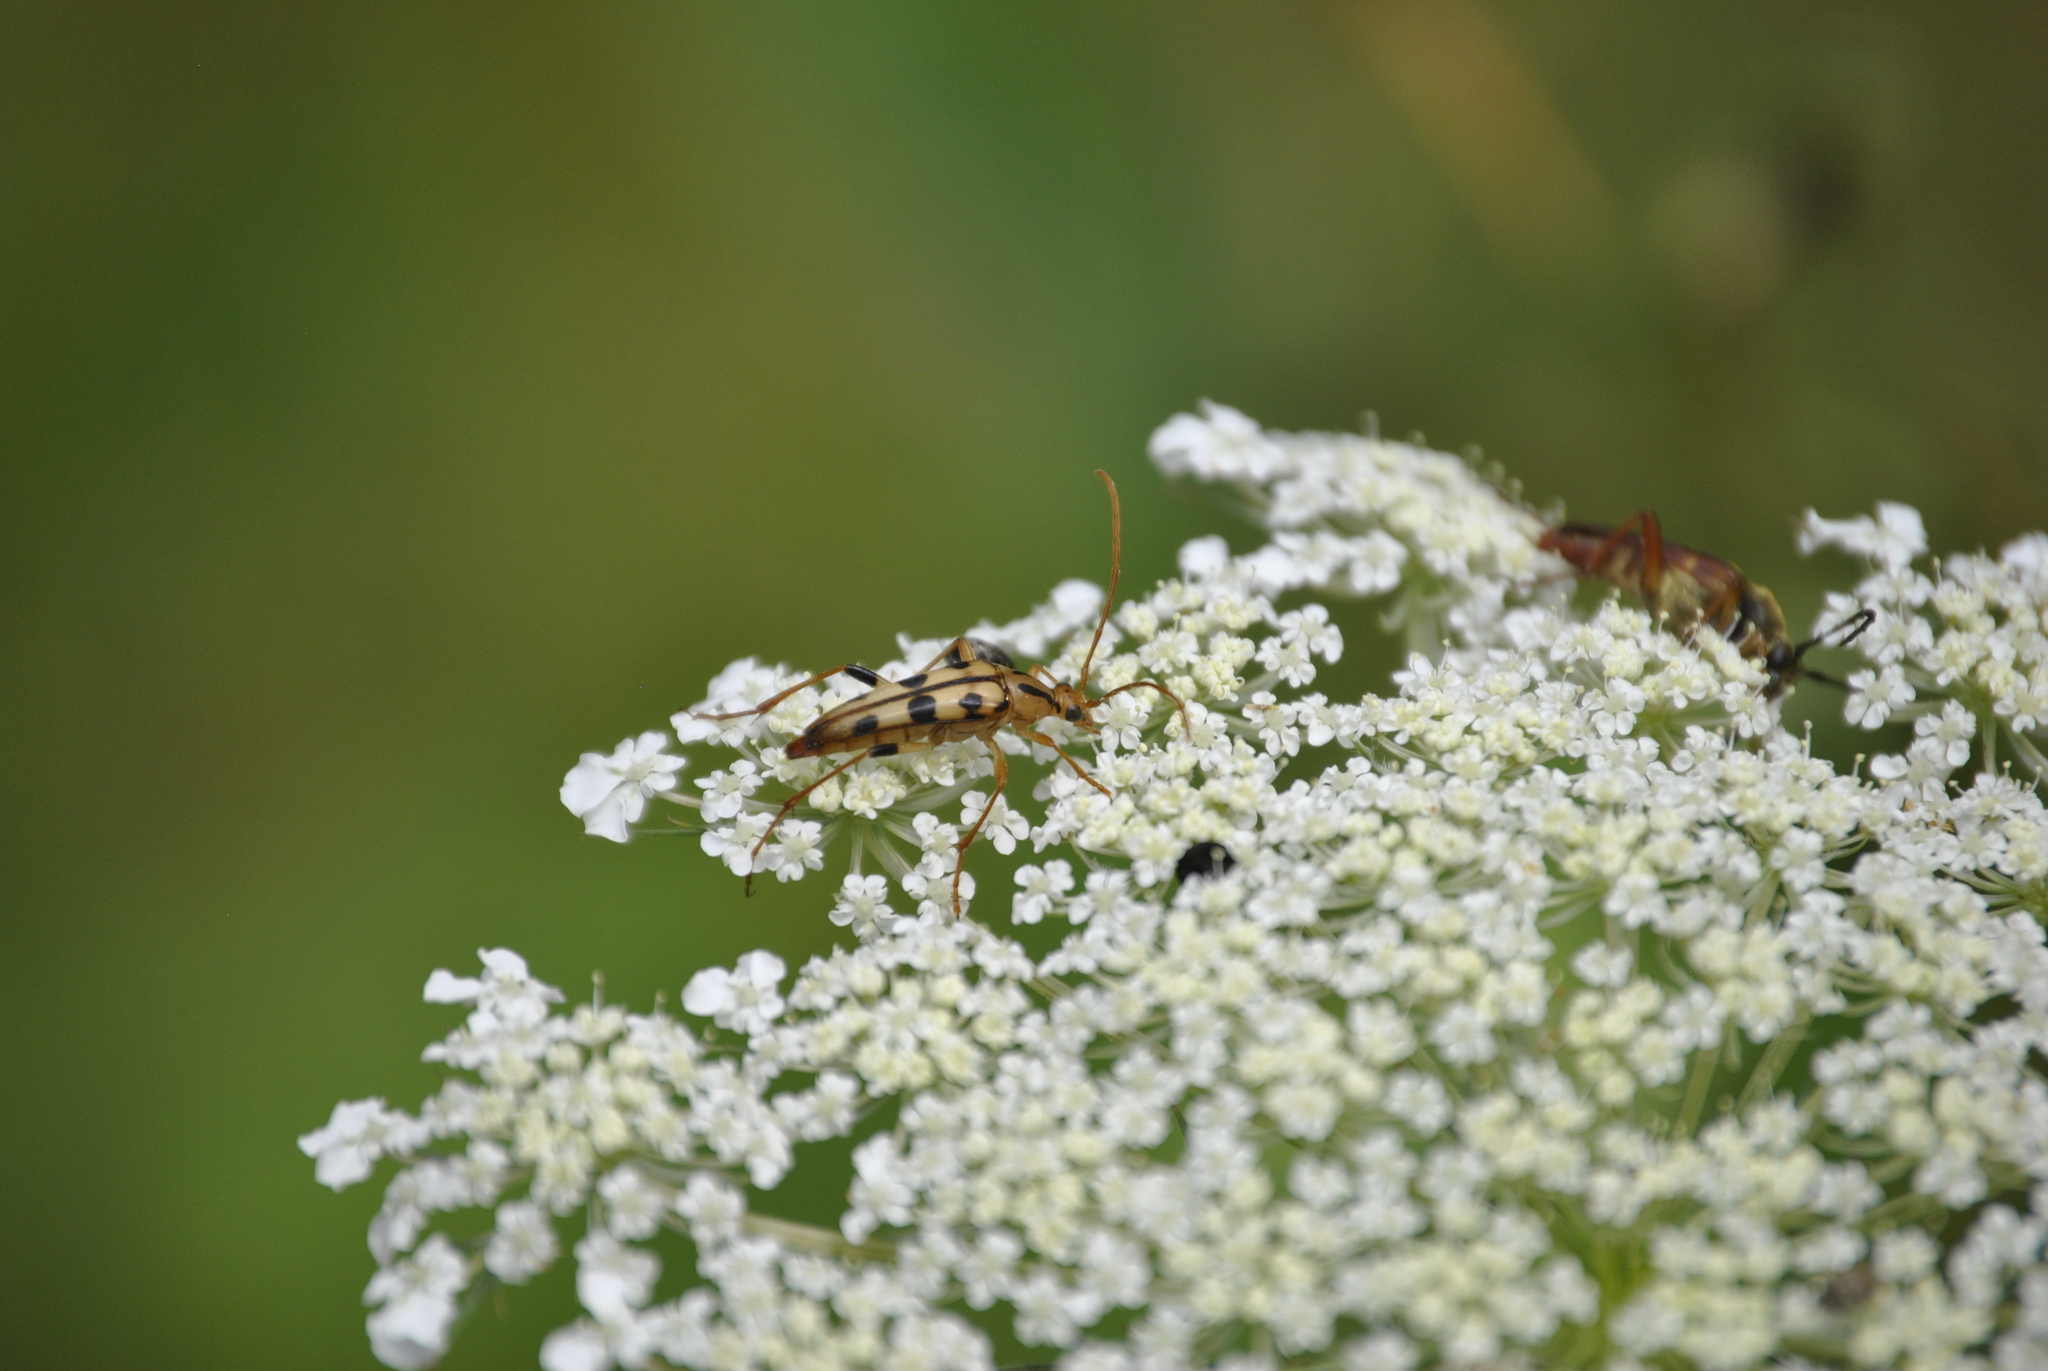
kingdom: Animalia
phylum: Arthropoda
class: Insecta
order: Coleoptera
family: Cerambycidae
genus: Strangalia
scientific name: Strangalia luteicornis
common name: Yellow-horned flower longhorn beetle
